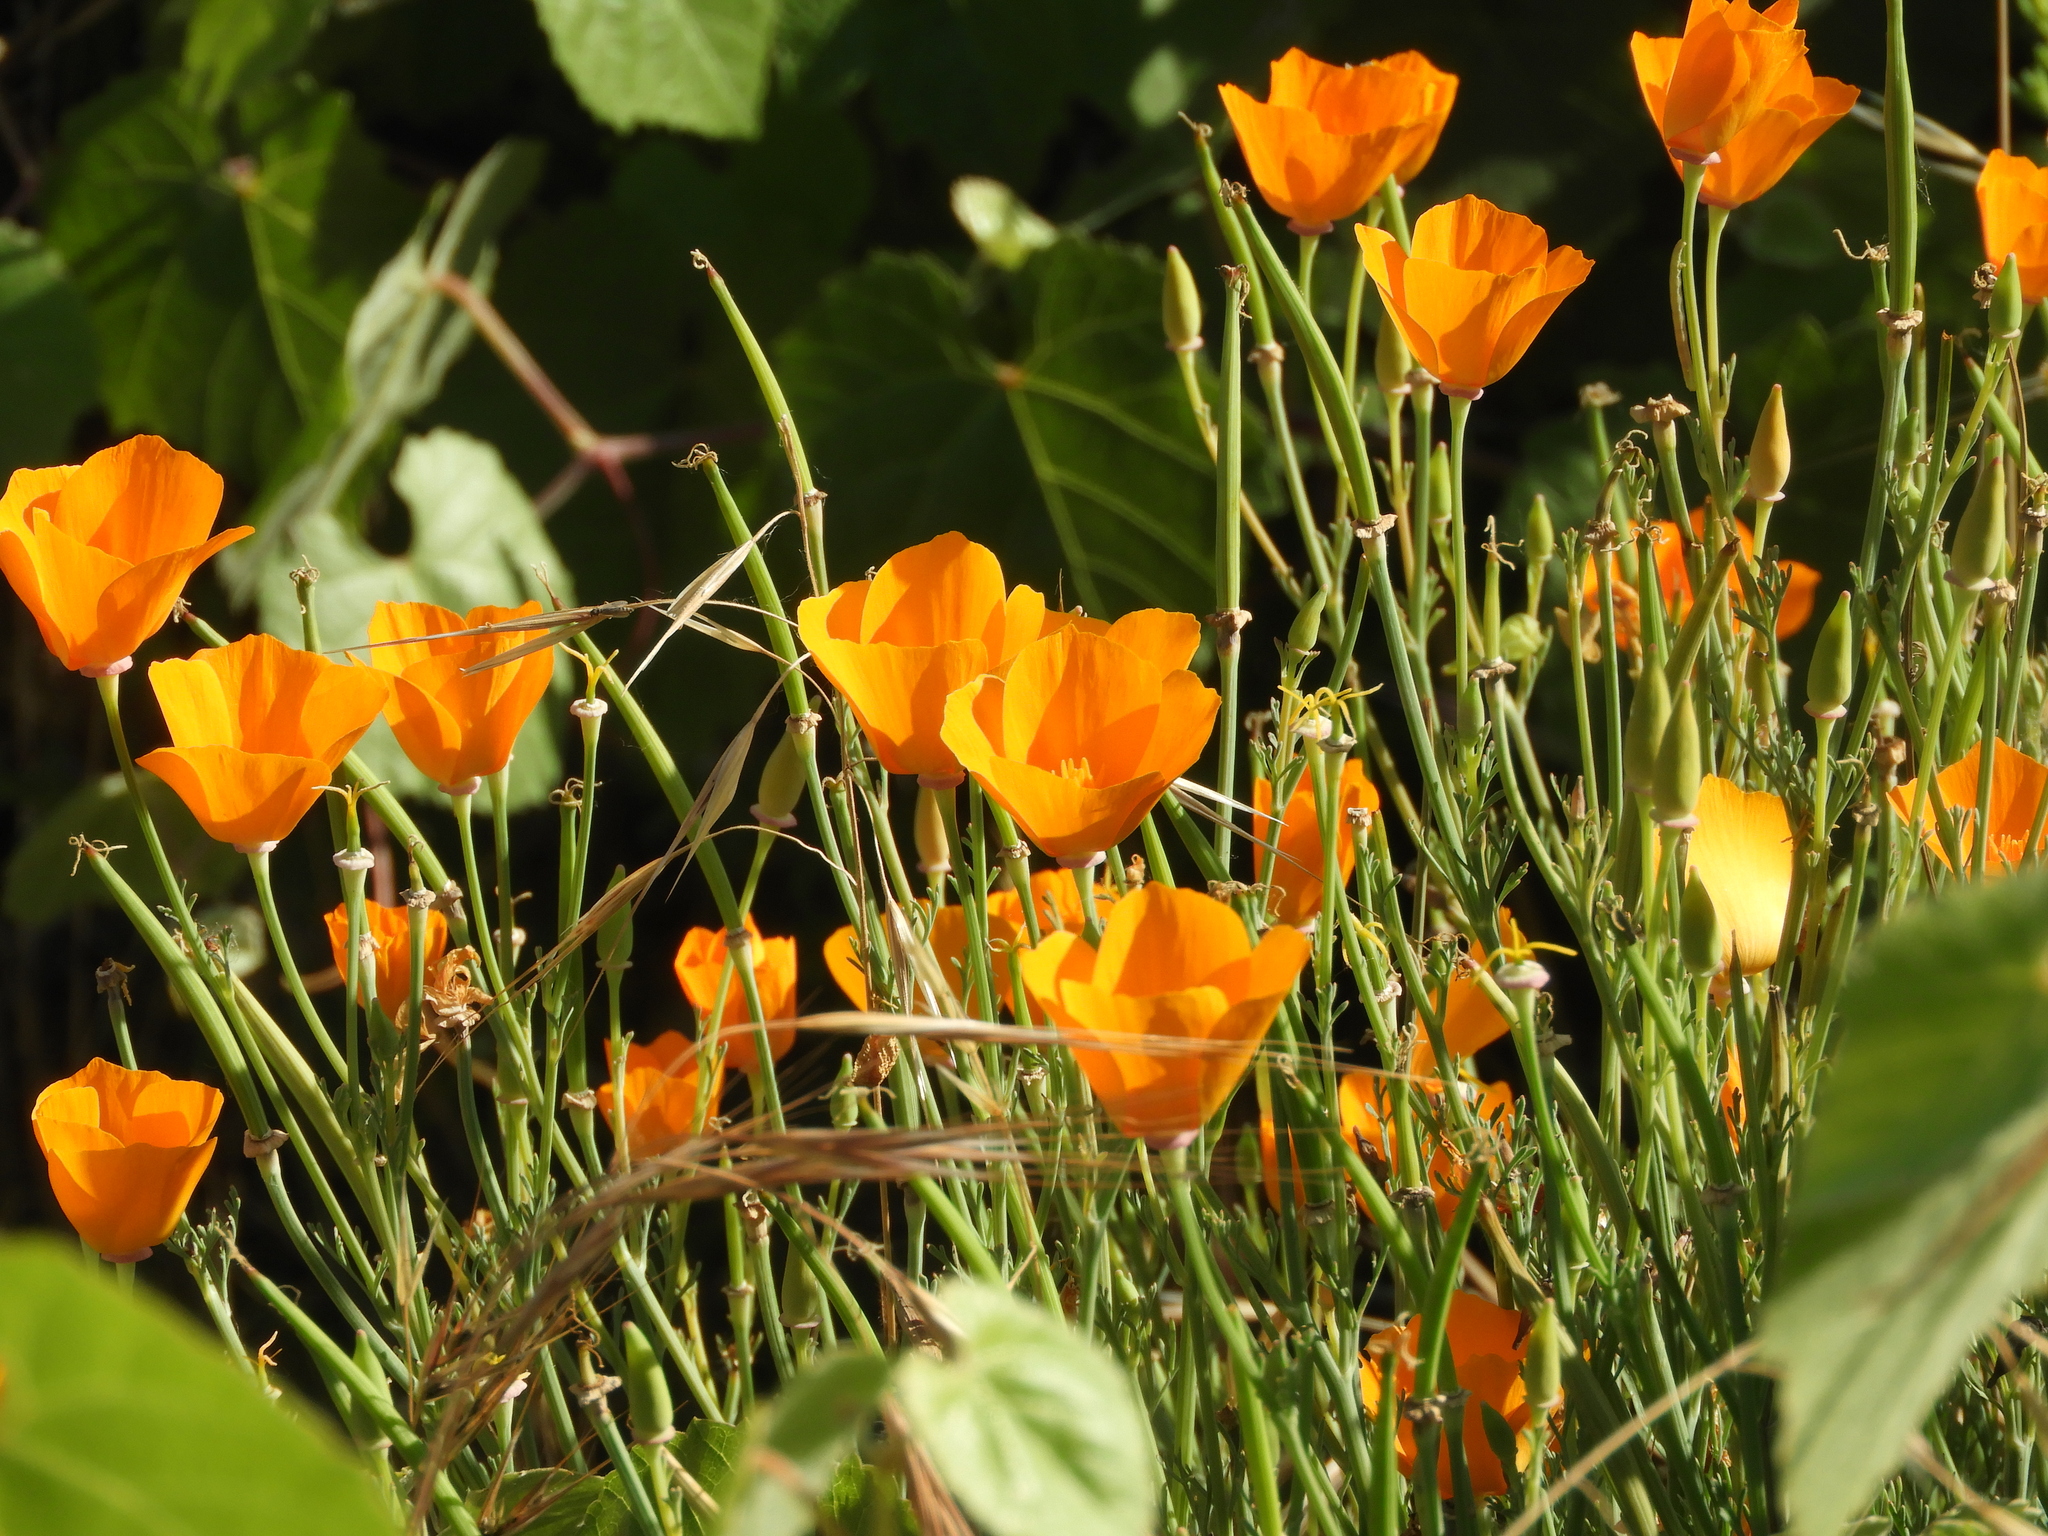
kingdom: Plantae
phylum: Tracheophyta
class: Magnoliopsida
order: Ranunculales
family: Papaveraceae
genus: Eschscholzia
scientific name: Eschscholzia californica
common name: California poppy
